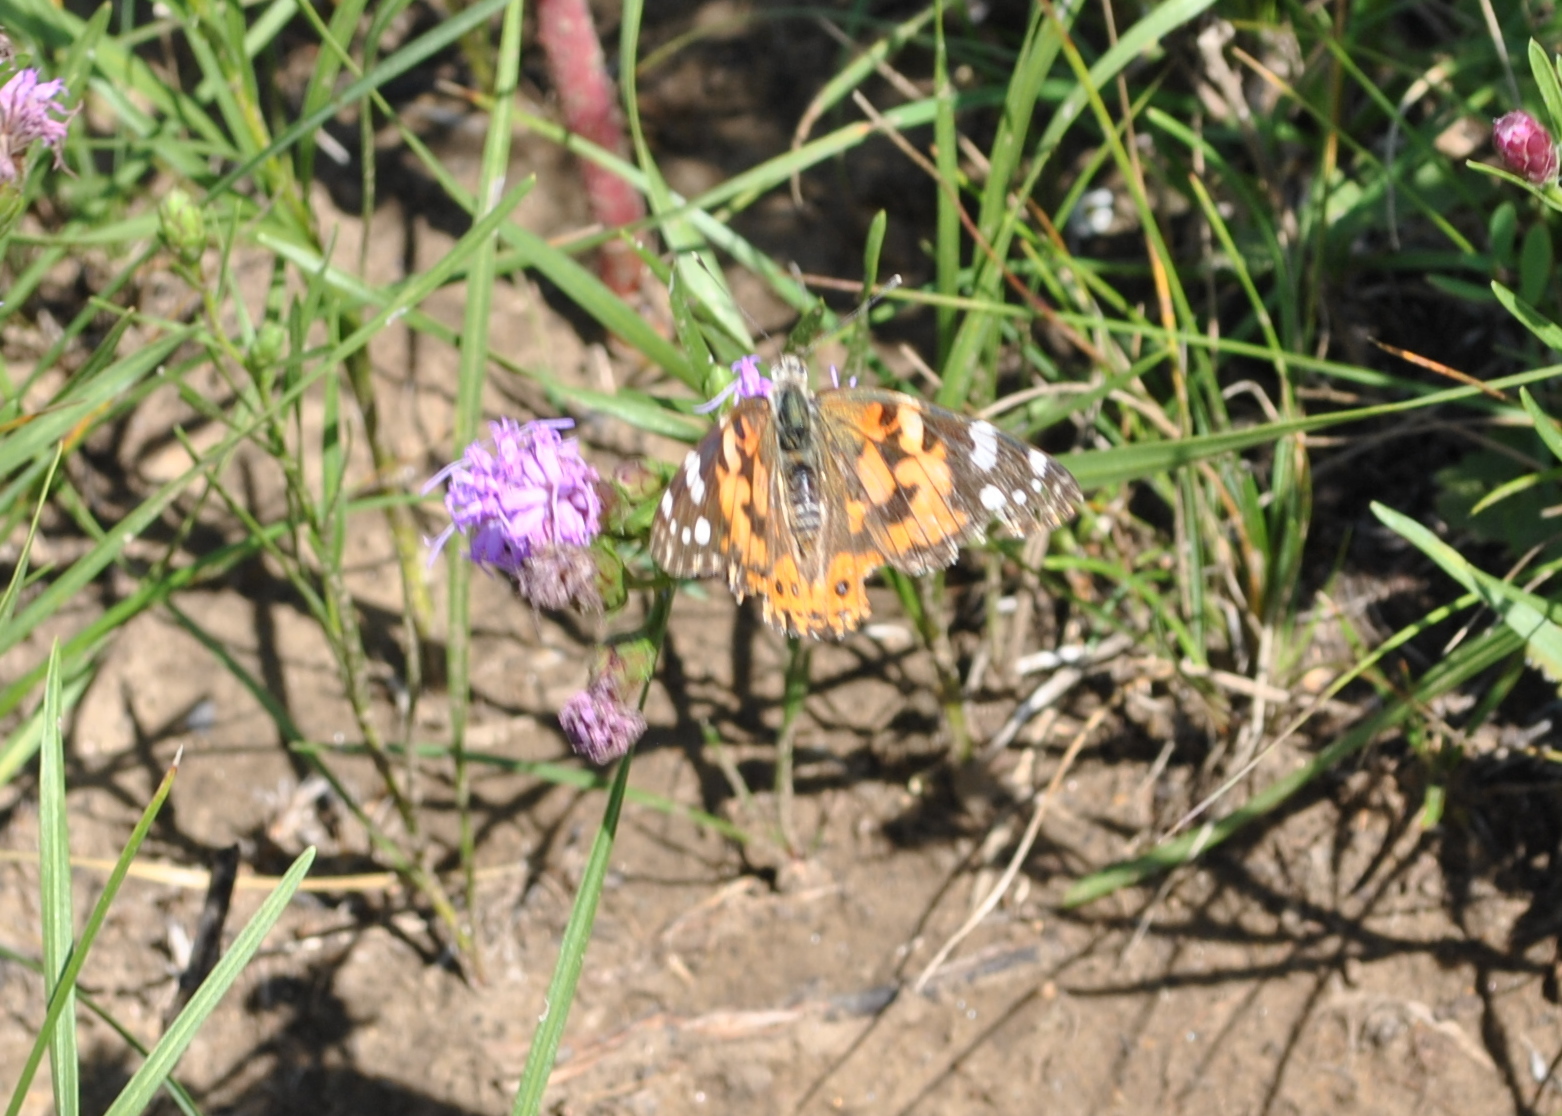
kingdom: Animalia
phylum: Arthropoda
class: Insecta
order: Lepidoptera
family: Nymphalidae
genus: Vanessa
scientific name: Vanessa cardui
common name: Painted lady
